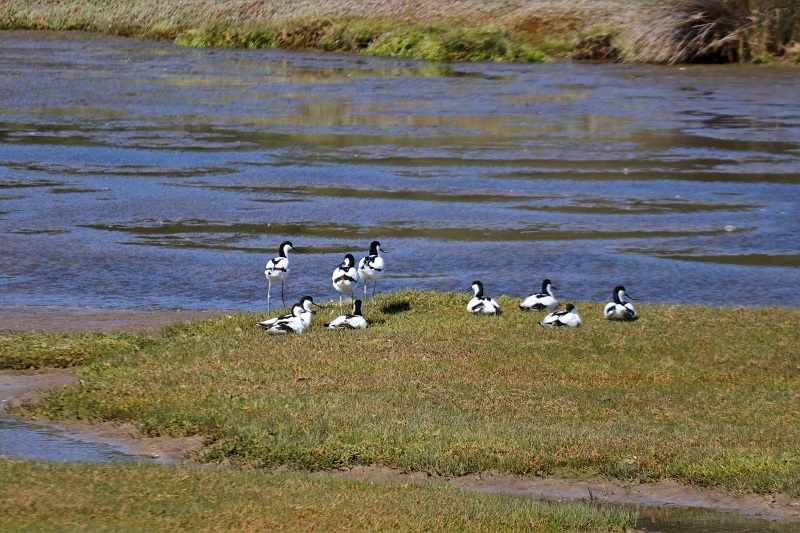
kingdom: Animalia
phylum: Chordata
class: Aves
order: Charadriiformes
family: Recurvirostridae
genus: Recurvirostra
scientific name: Recurvirostra avosetta
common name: Pied avocet
